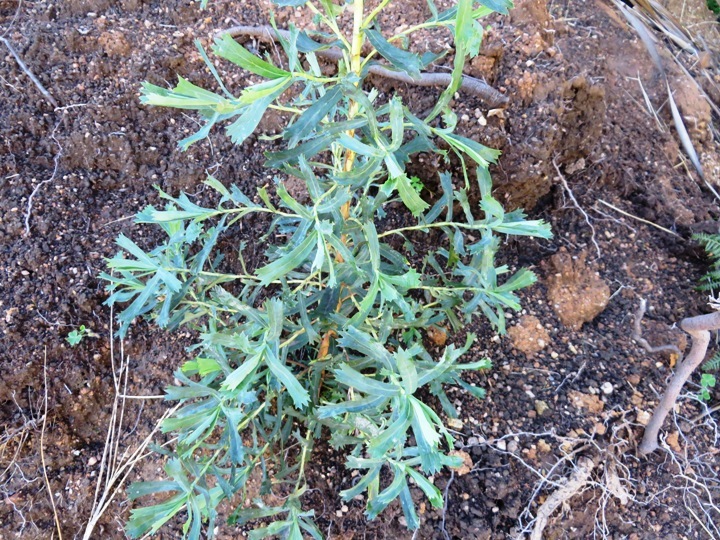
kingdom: Plantae
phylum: Tracheophyta
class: Magnoliopsida
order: Rosales
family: Rosaceae
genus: Cliffortia
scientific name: Cliffortia cuneata
